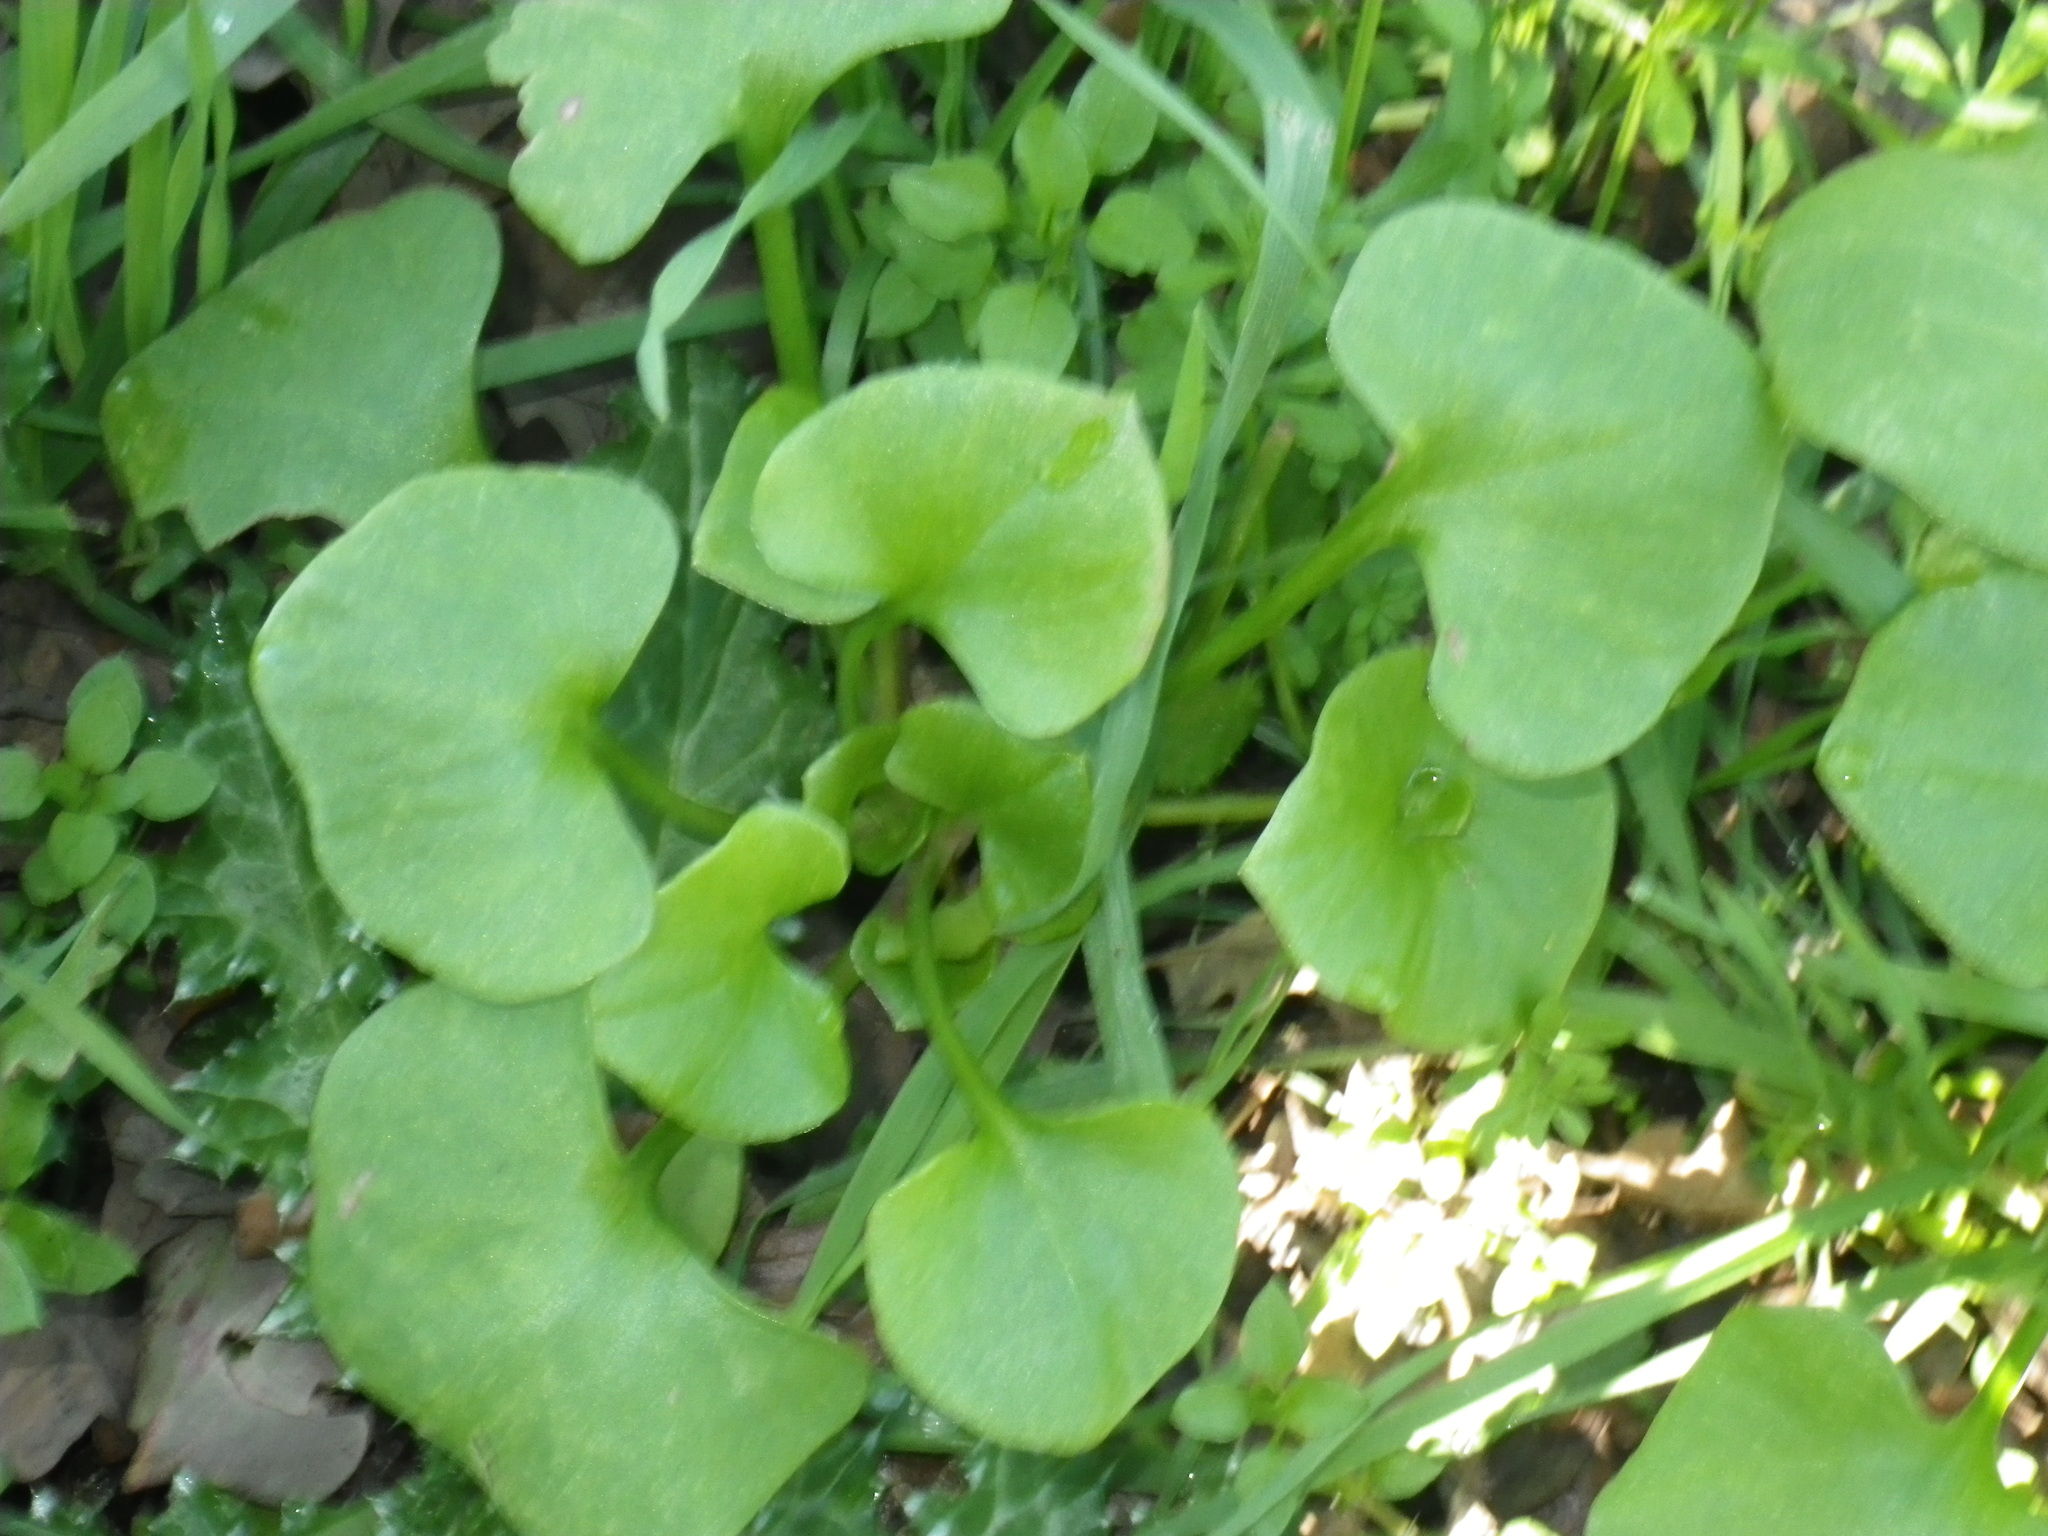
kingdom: Plantae
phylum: Tracheophyta
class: Magnoliopsida
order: Caryophyllales
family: Montiaceae
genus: Claytonia
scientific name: Claytonia perfoliata
